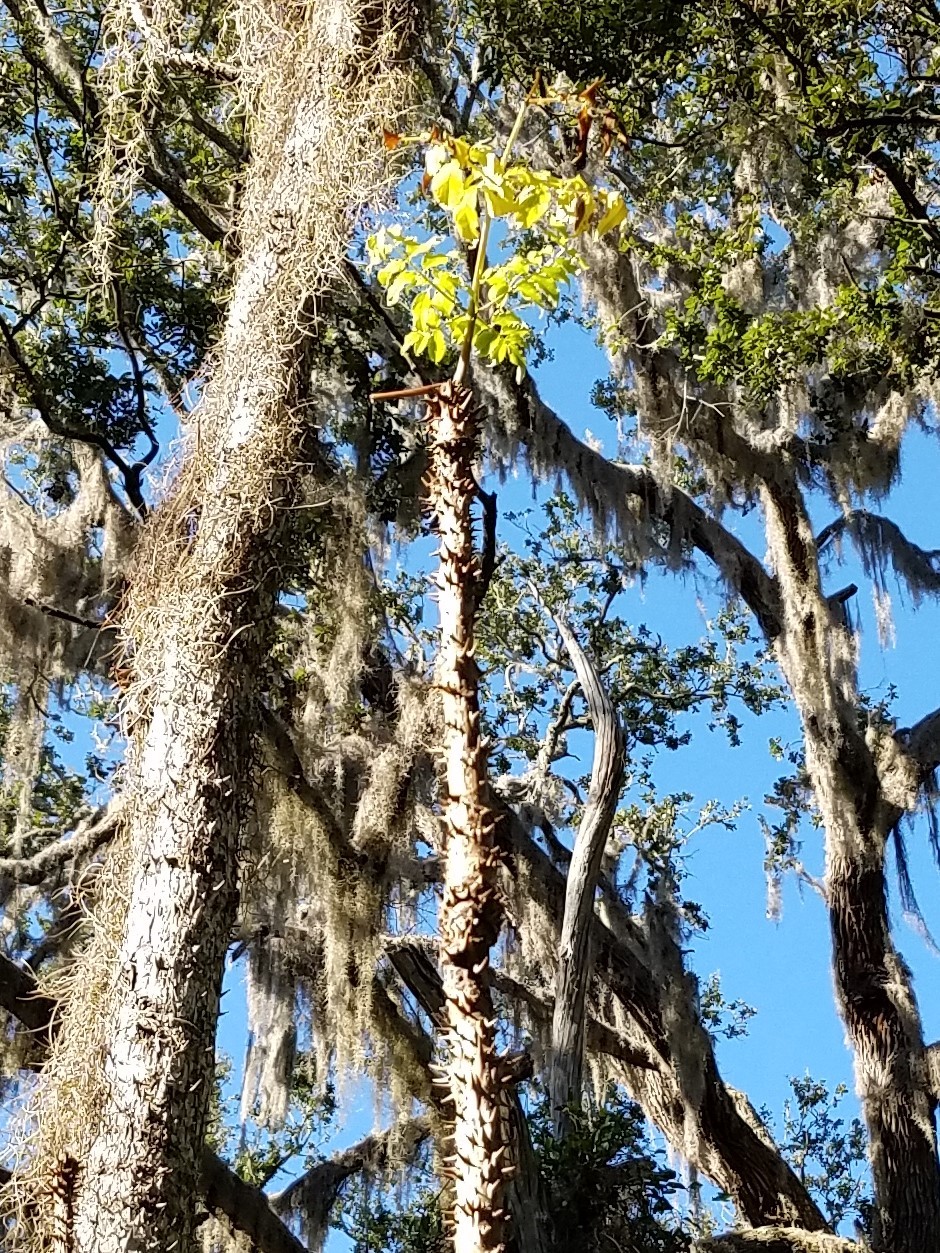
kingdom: Plantae
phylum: Tracheophyta
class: Magnoliopsida
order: Apiales
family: Araliaceae
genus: Aralia
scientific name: Aralia spinosa
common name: Hercules'-club
